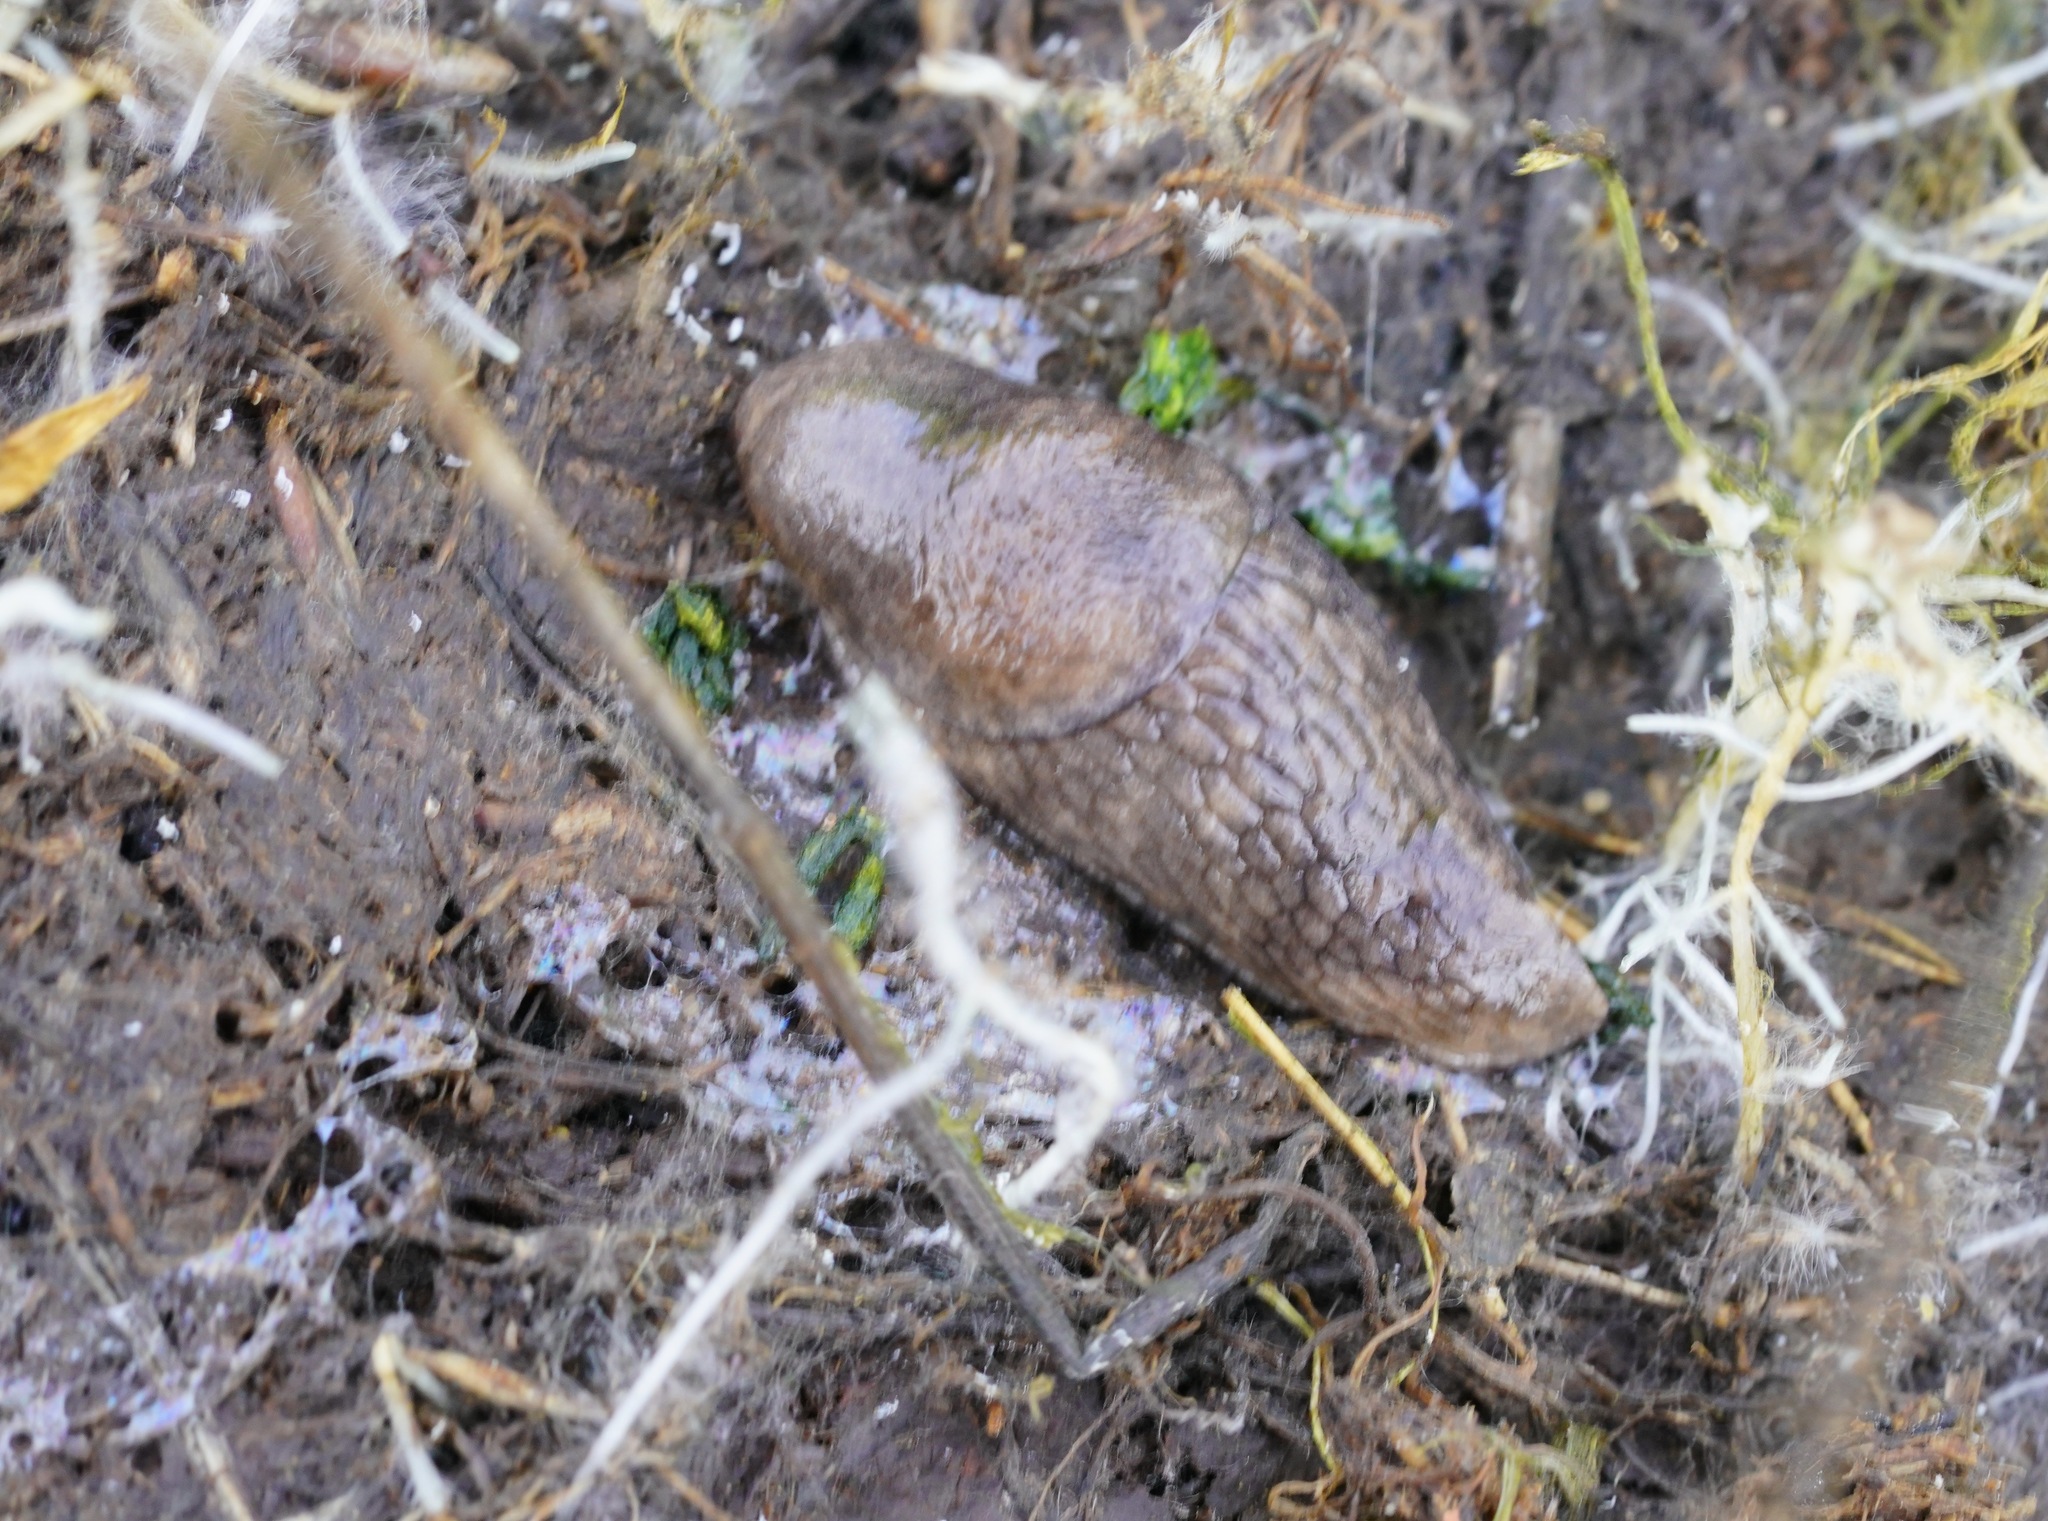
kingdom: Animalia
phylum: Mollusca
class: Gastropoda
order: Stylommatophora
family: Agriolimacidae
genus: Deroceras
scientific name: Deroceras reticulatum
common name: Gray field slug
